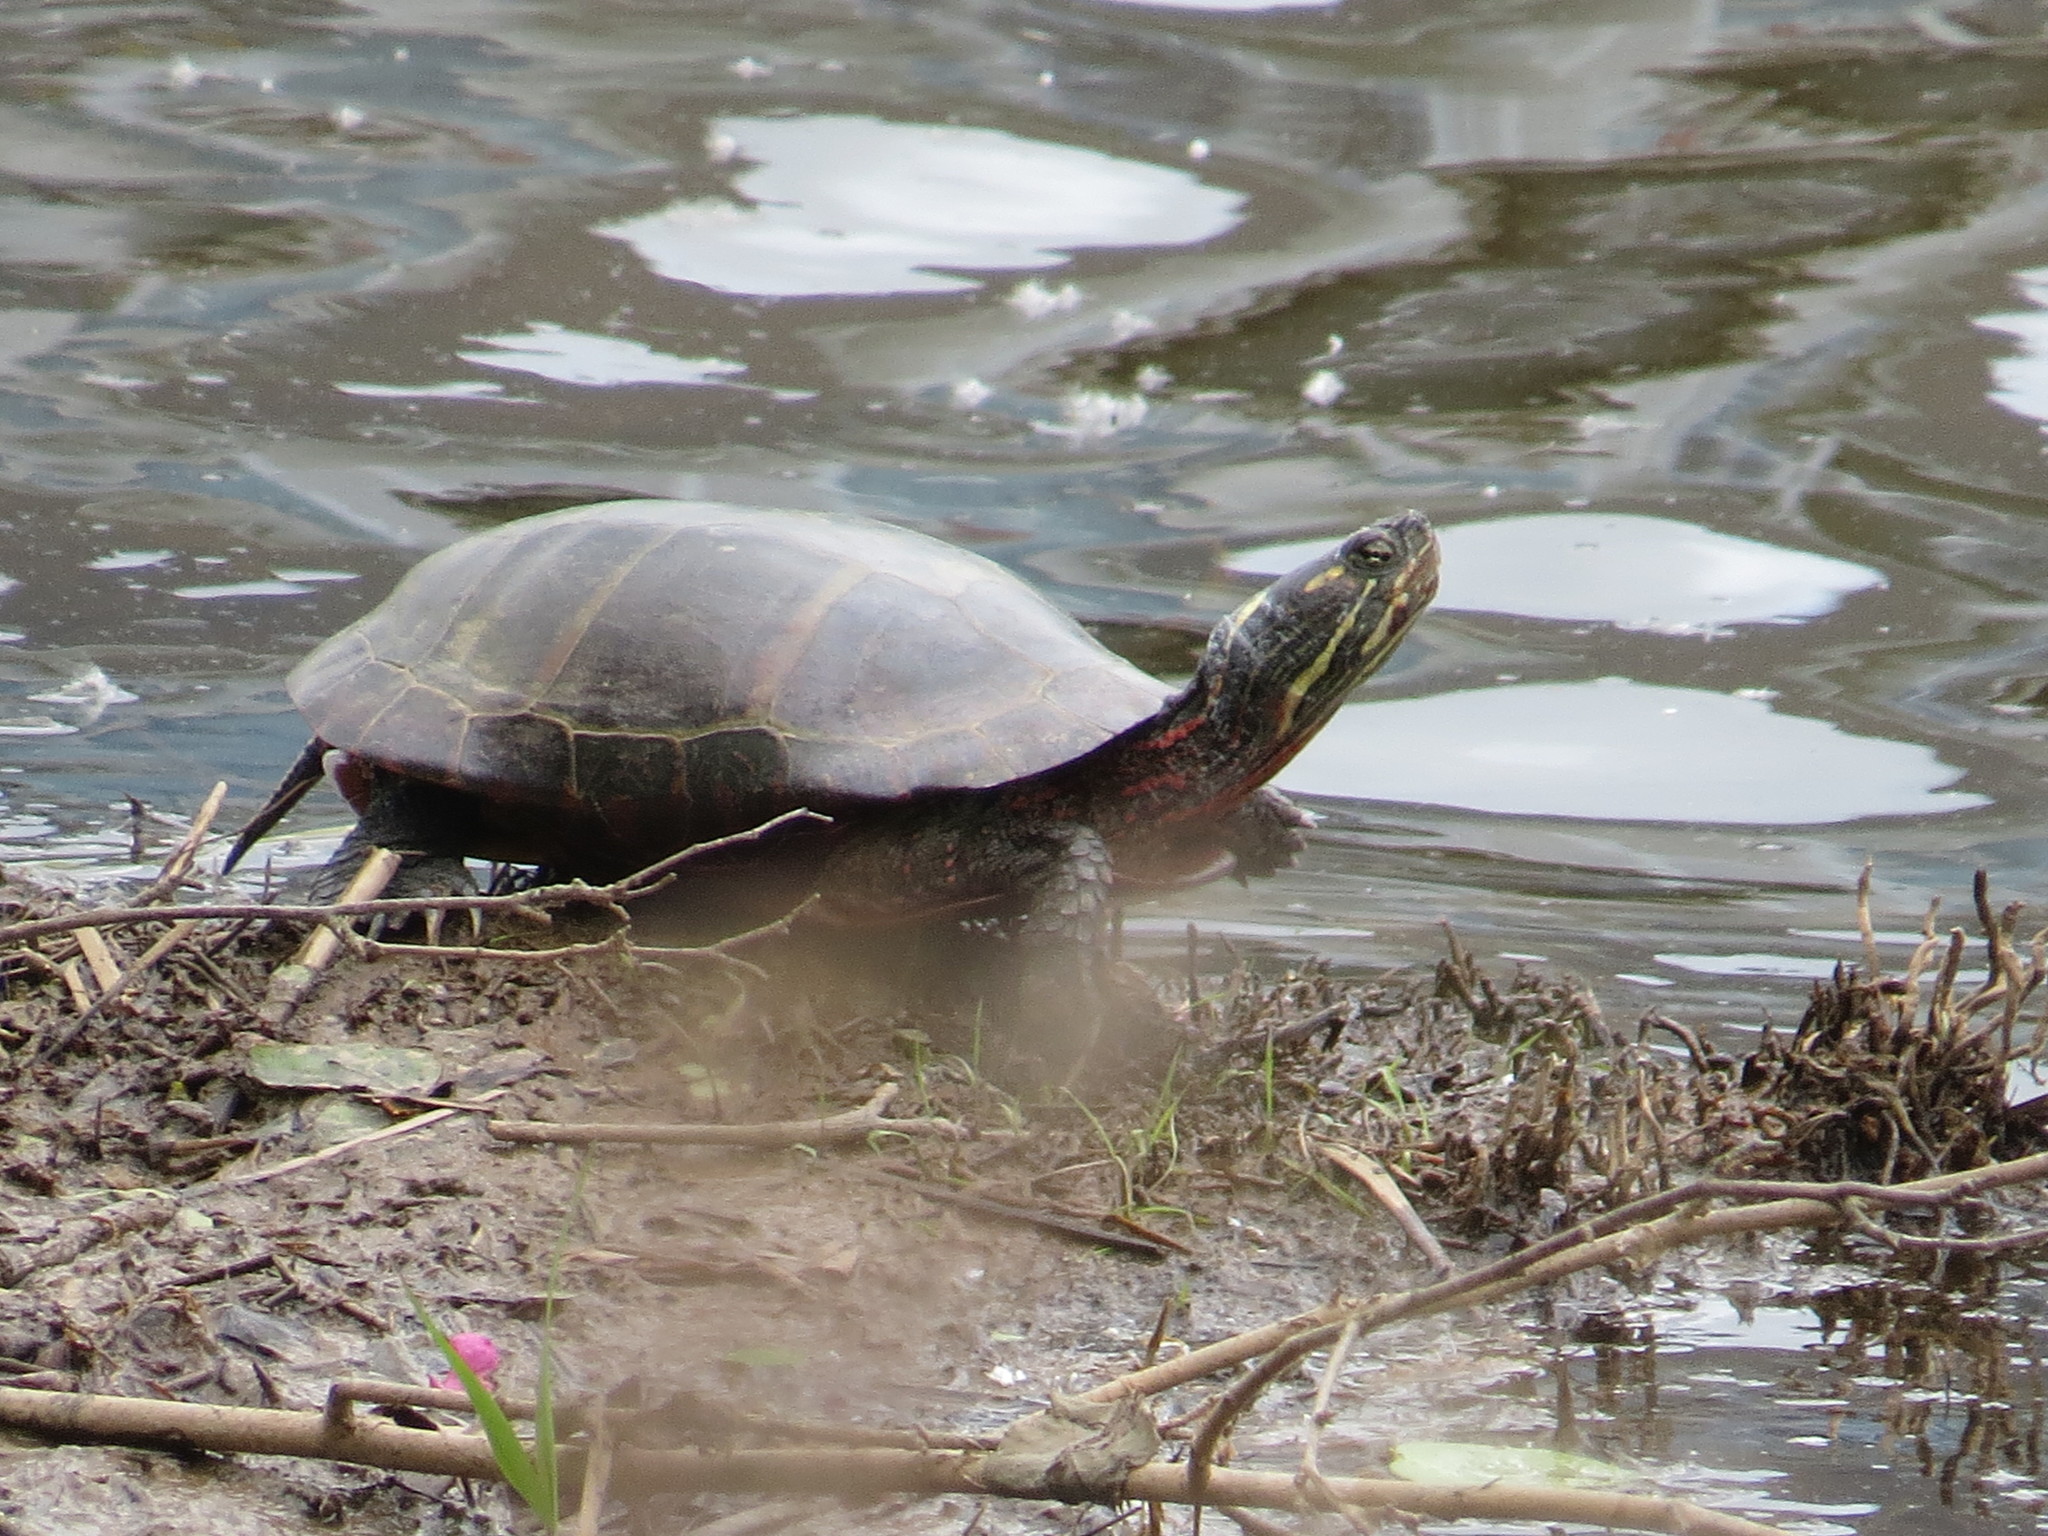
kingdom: Animalia
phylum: Chordata
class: Testudines
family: Emydidae
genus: Chrysemys
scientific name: Chrysemys picta
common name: Painted turtle
